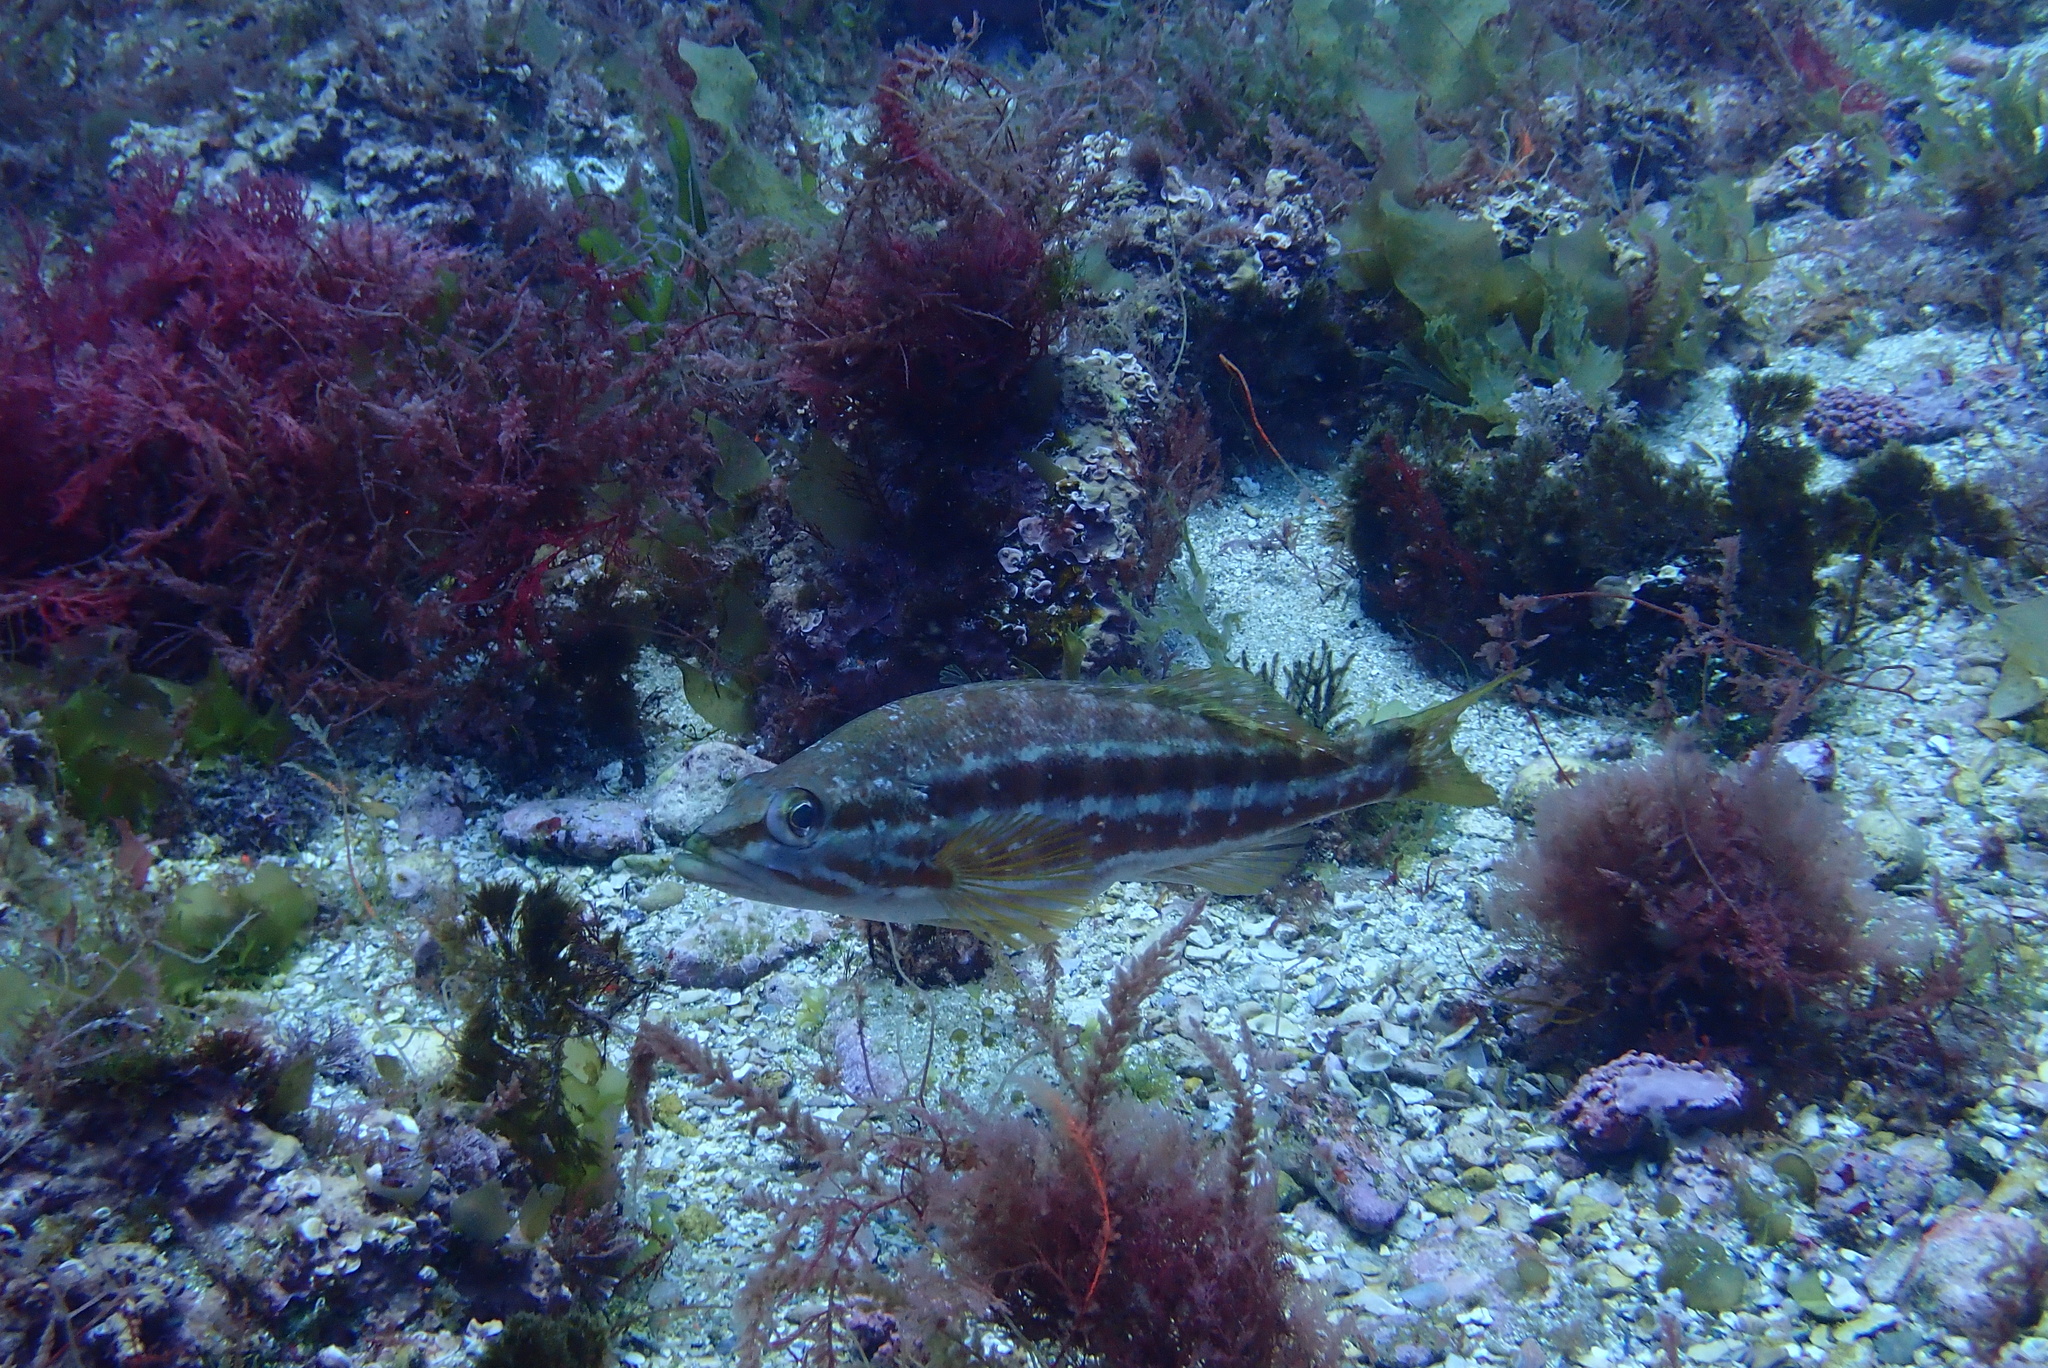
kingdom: Animalia
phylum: Chordata
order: Perciformes
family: Serranidae
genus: Serranus
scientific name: Serranus cabrilla
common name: Comber
